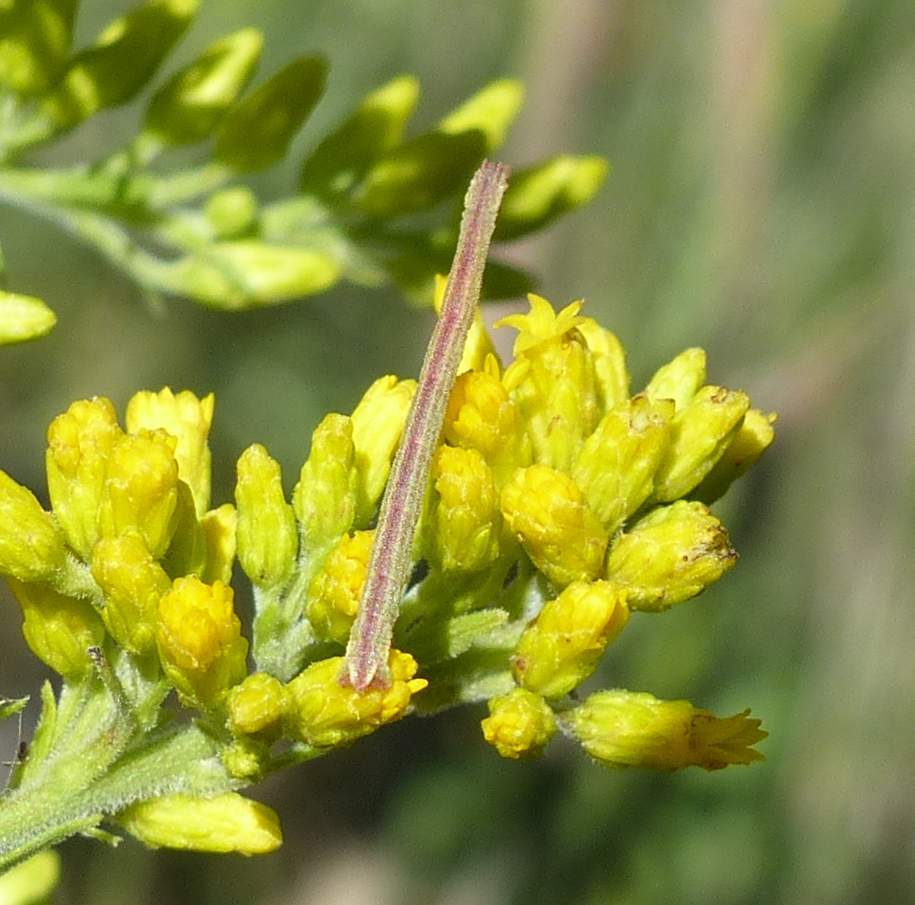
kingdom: Animalia
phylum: Arthropoda
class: Insecta
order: Lepidoptera
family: Geometridae
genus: Chlorochlamys
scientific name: Chlorochlamys chloroleucaria
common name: Blackberry looper
